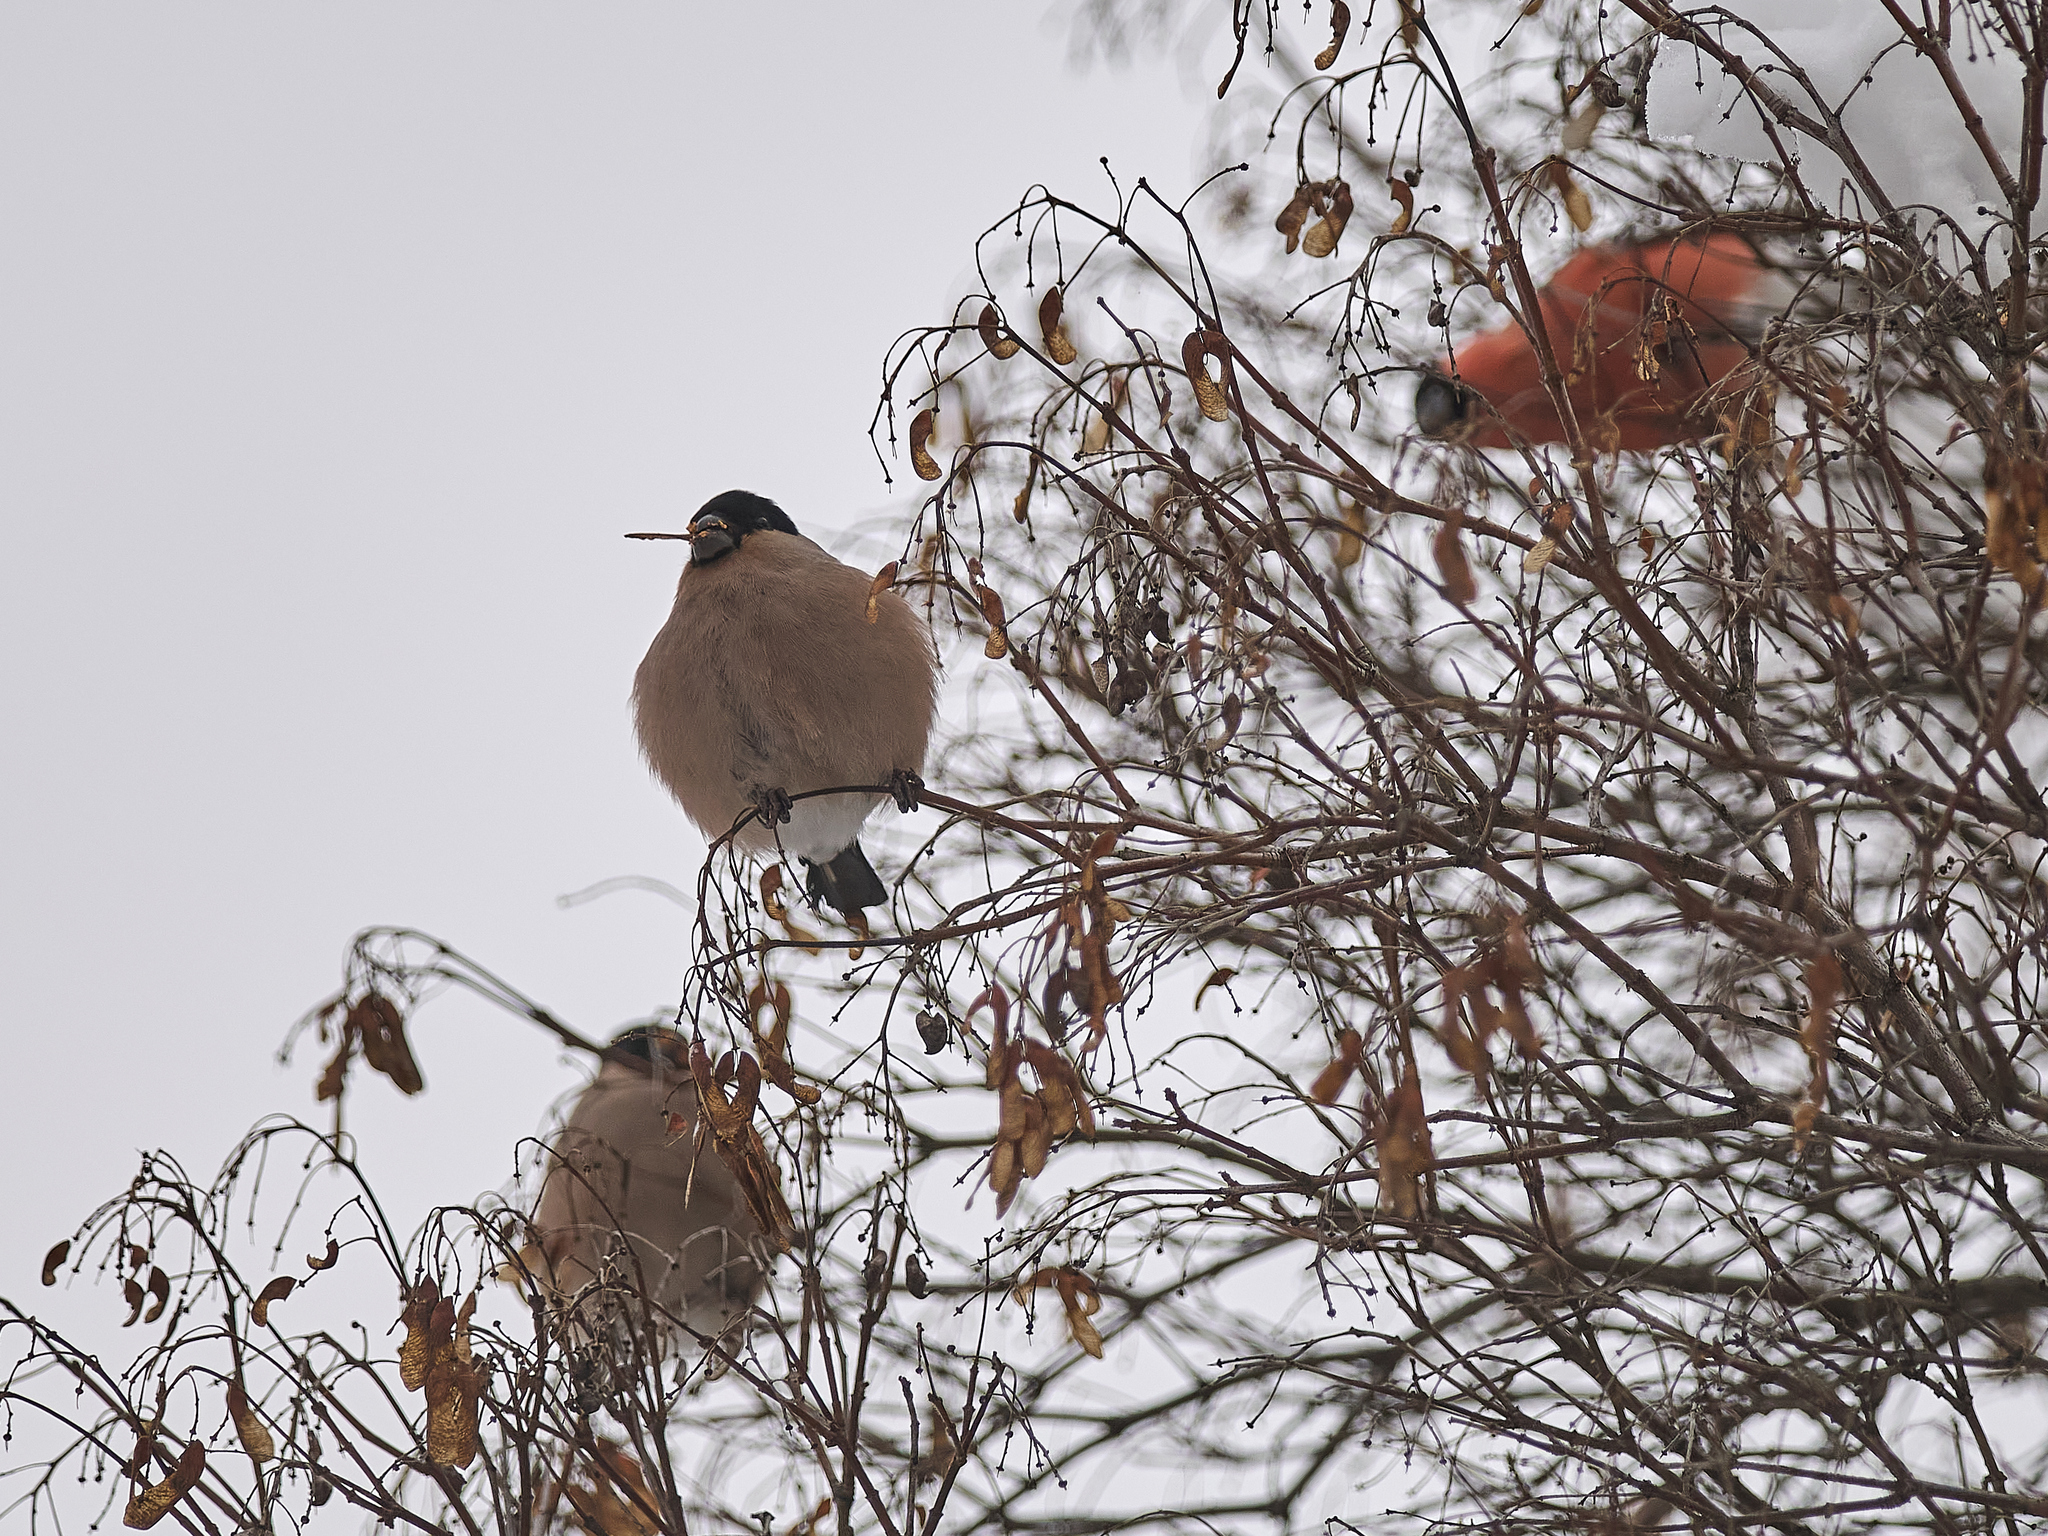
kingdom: Animalia
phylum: Chordata
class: Aves
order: Passeriformes
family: Fringillidae
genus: Pyrrhula
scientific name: Pyrrhula pyrrhula
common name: Eurasian bullfinch
